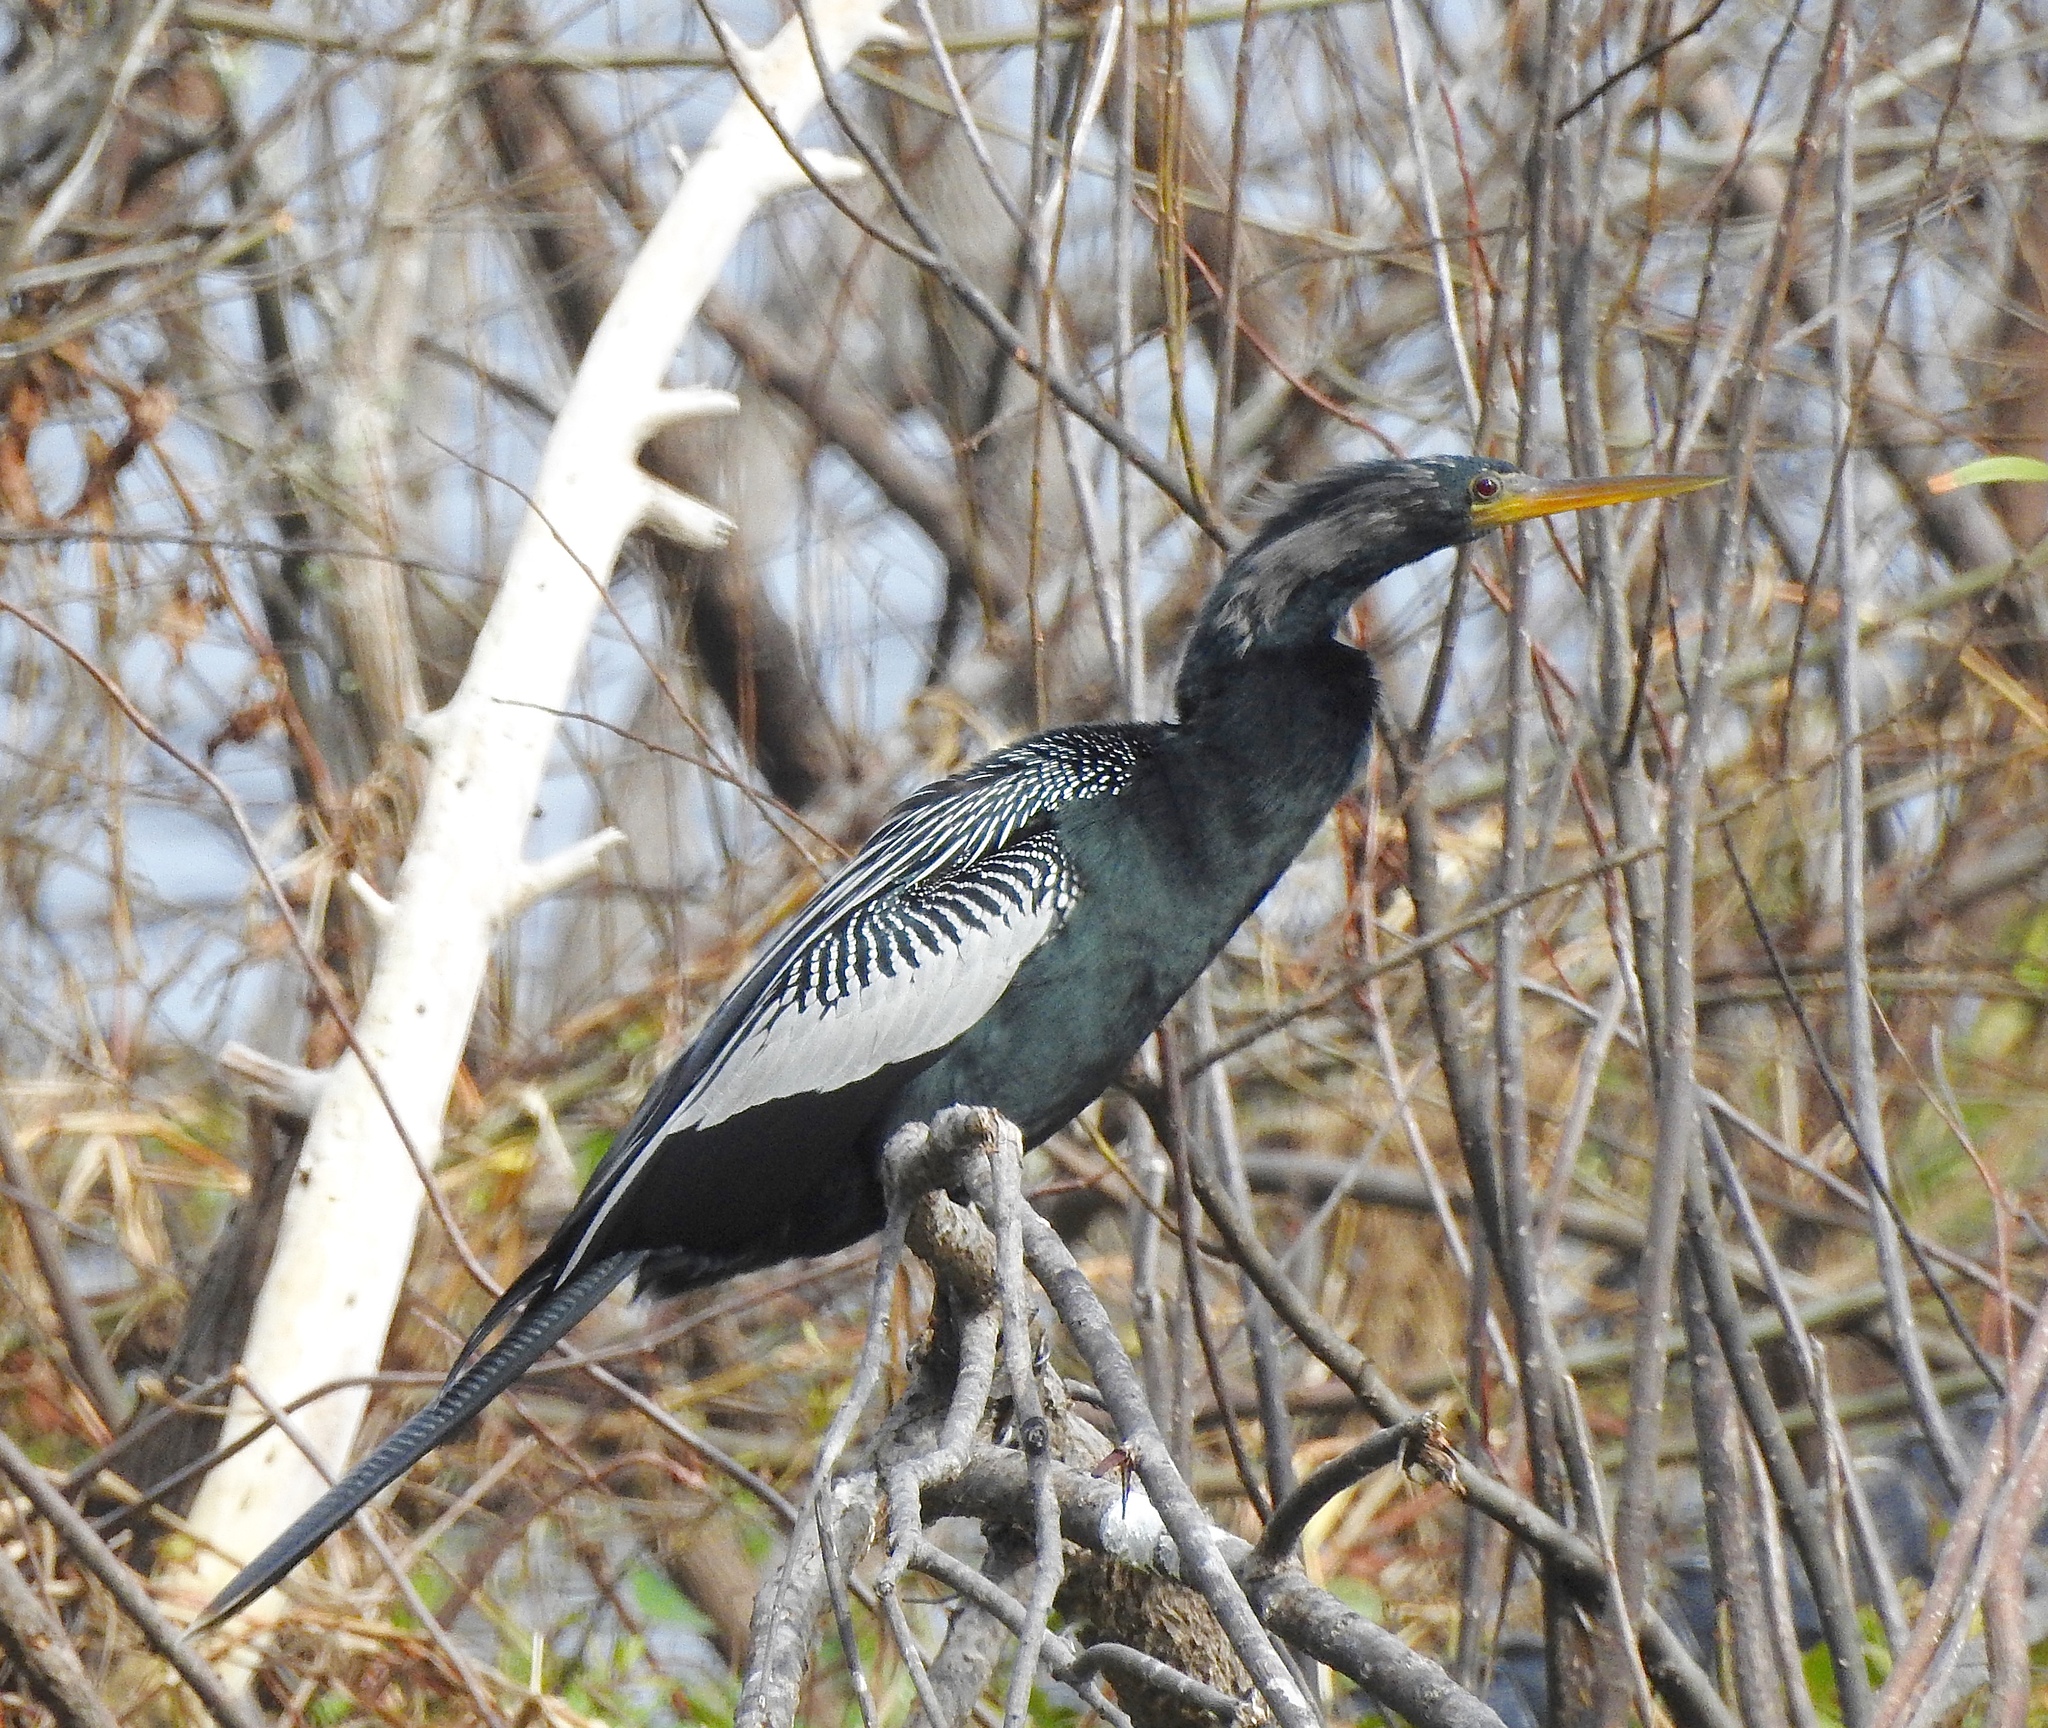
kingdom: Animalia
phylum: Chordata
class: Aves
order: Suliformes
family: Anhingidae
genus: Anhinga
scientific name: Anhinga anhinga
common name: Anhinga
